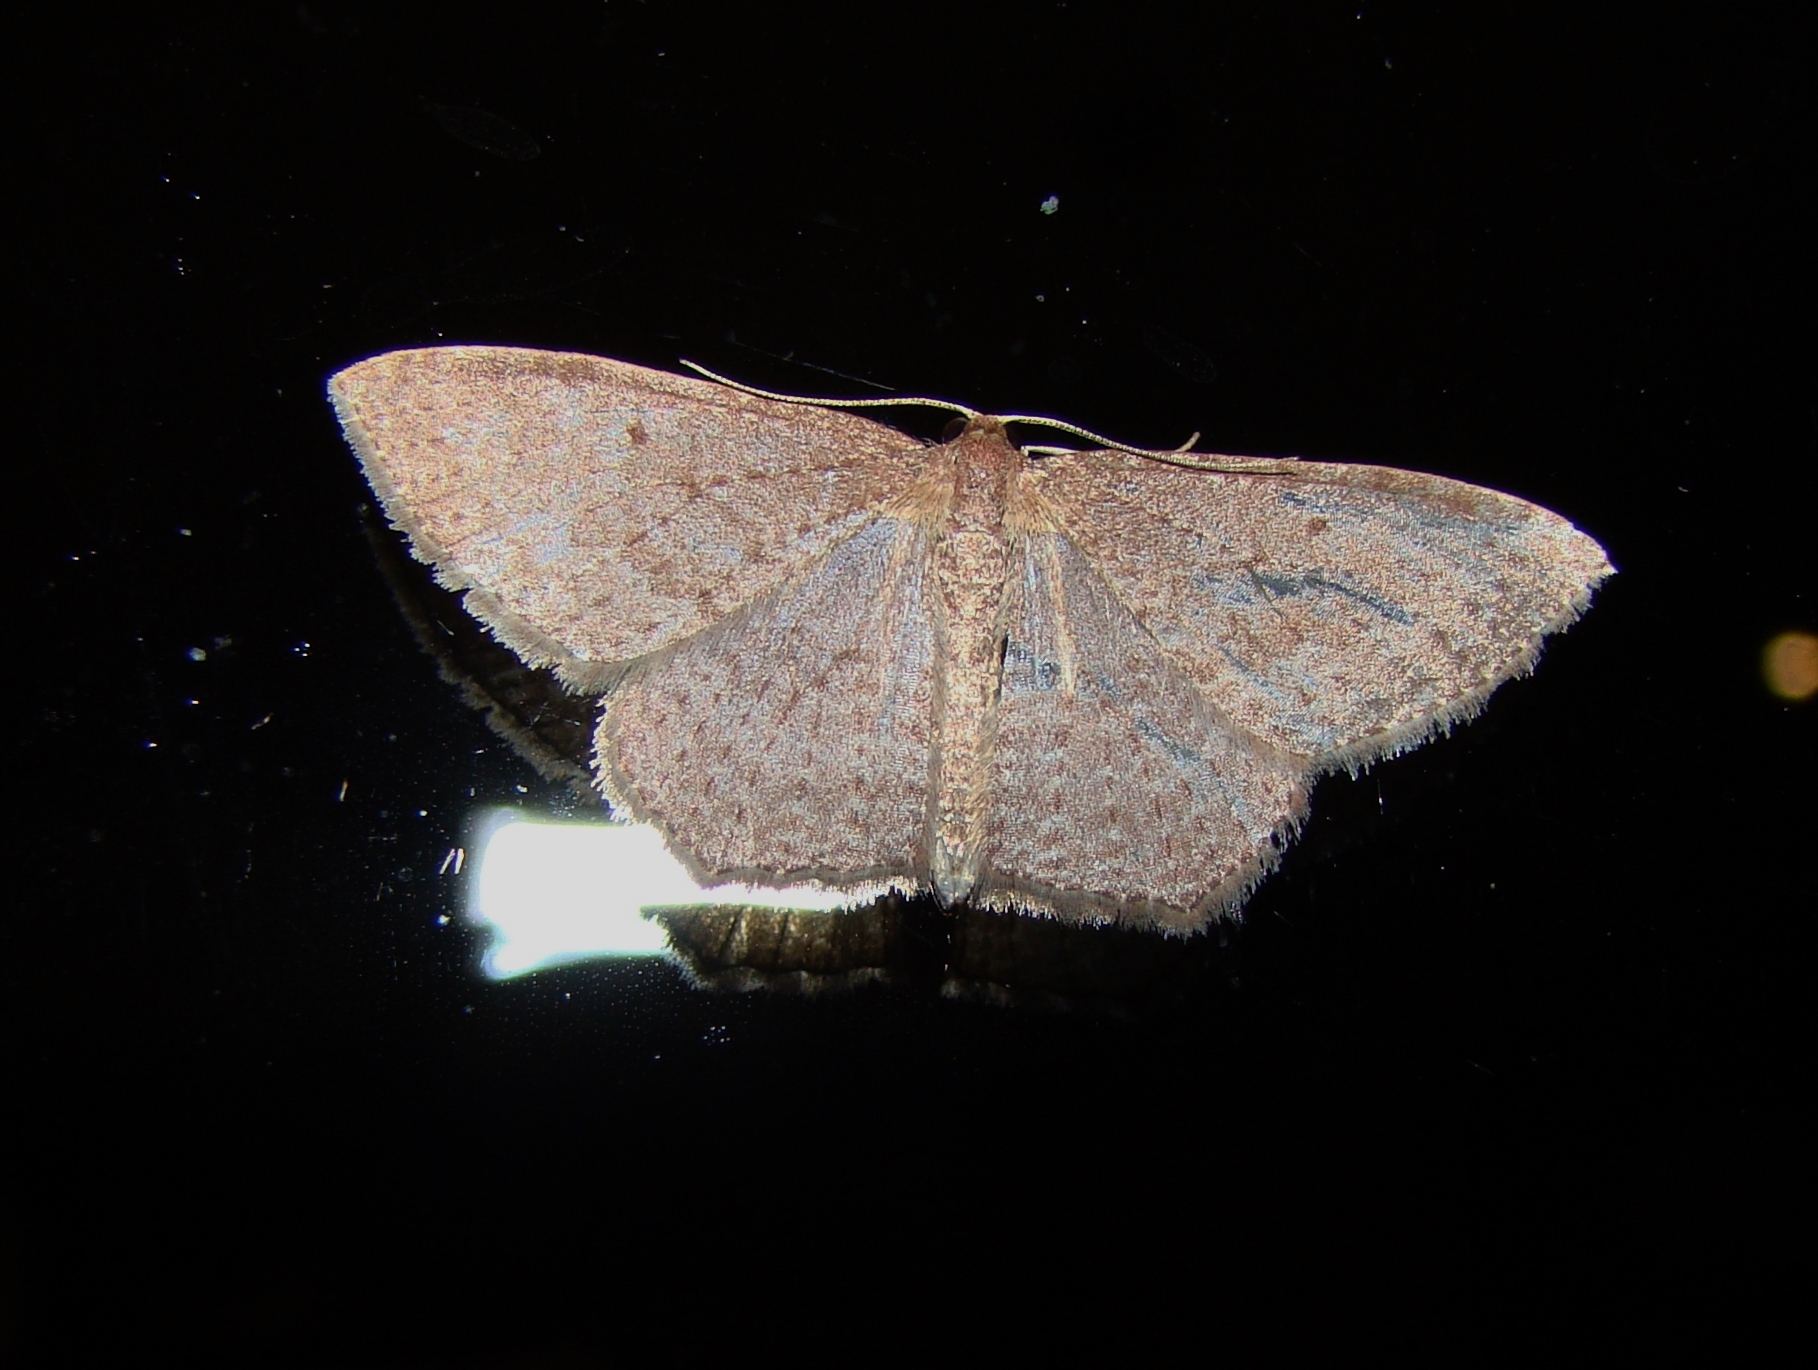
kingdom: Animalia
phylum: Arthropoda
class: Insecta
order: Lepidoptera
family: Geometridae
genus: Poecilasthena
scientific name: Poecilasthena subpurpureata
